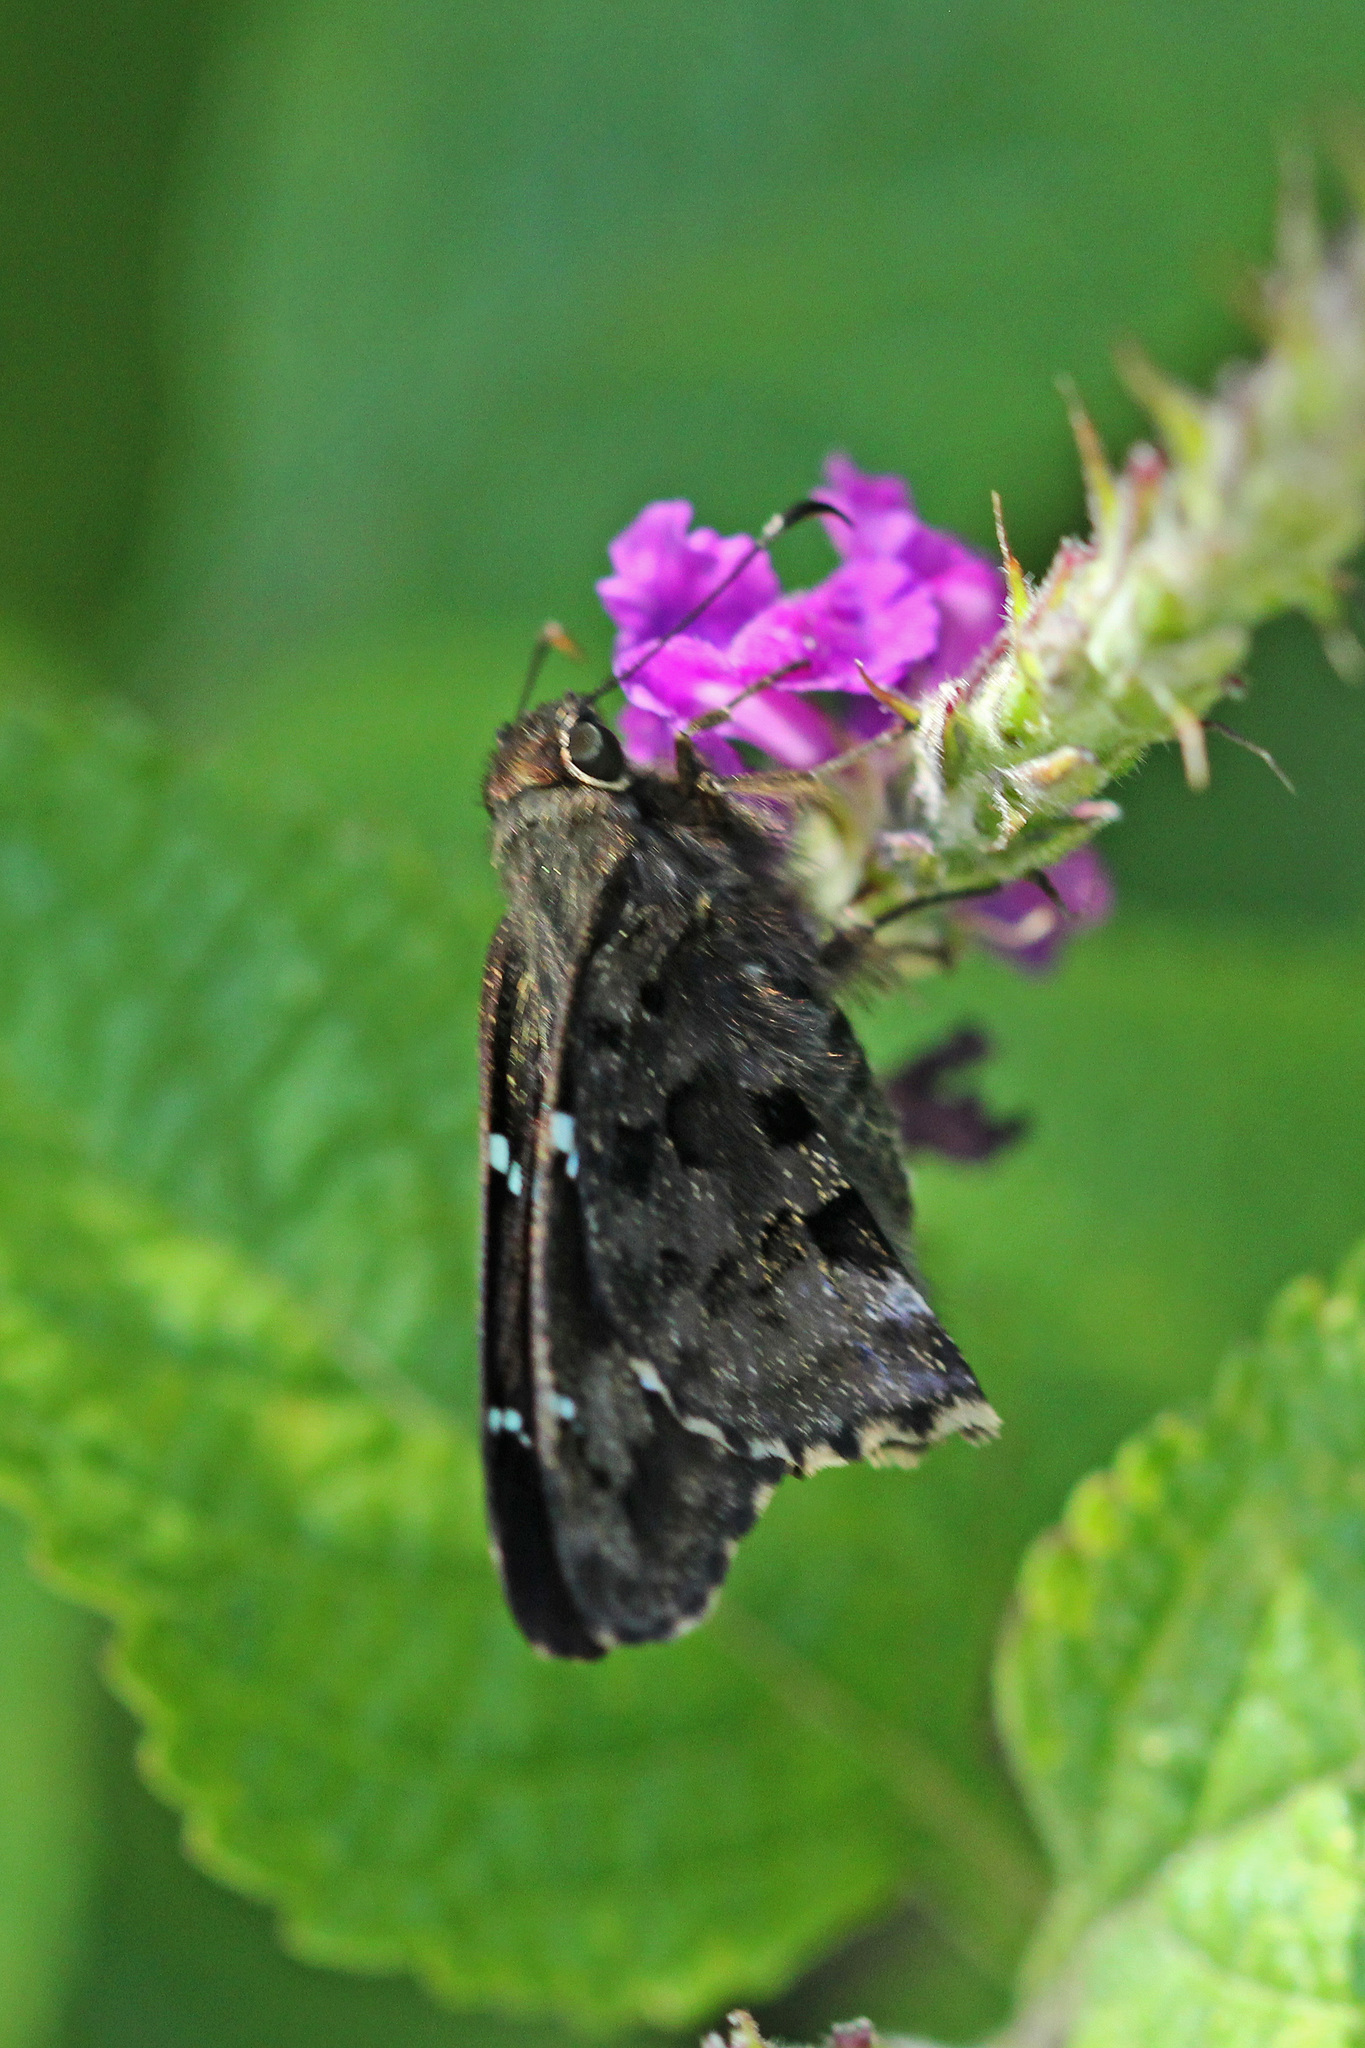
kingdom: Animalia
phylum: Arthropoda
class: Insecta
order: Lepidoptera
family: Hesperiidae
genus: Codatractus
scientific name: Codatractus imalena
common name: Bluish mottled-skipper
